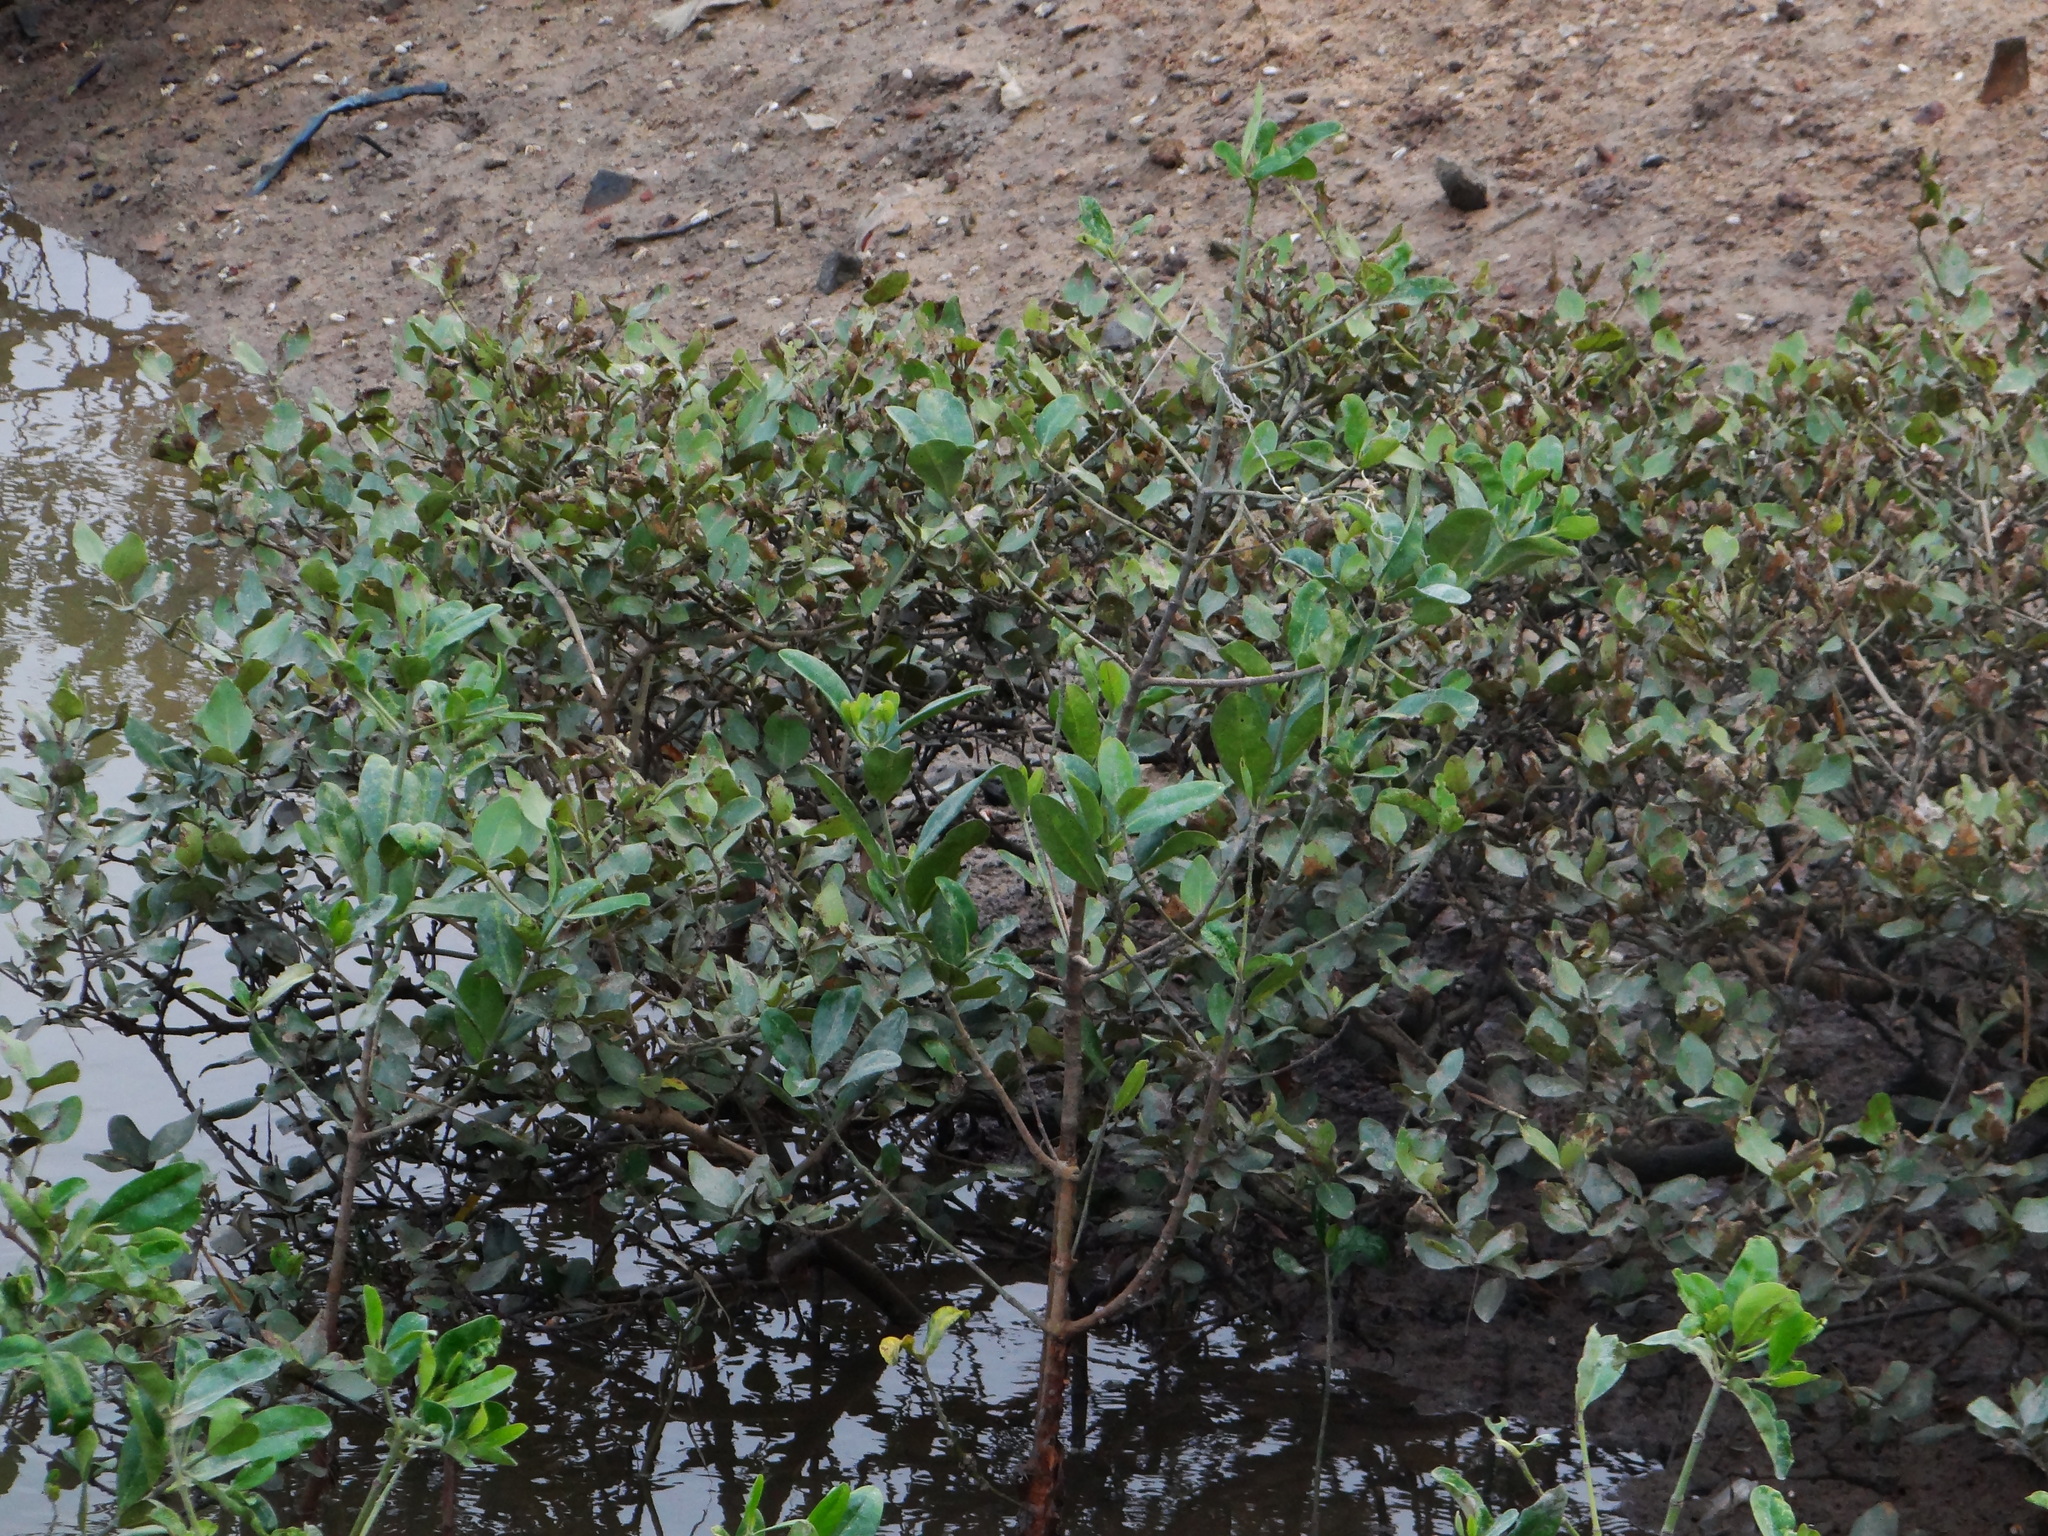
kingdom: Plantae
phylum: Tracheophyta
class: Magnoliopsida
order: Malpighiales
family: Rhizophoraceae
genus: Kandelia
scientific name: Kandelia obovata
